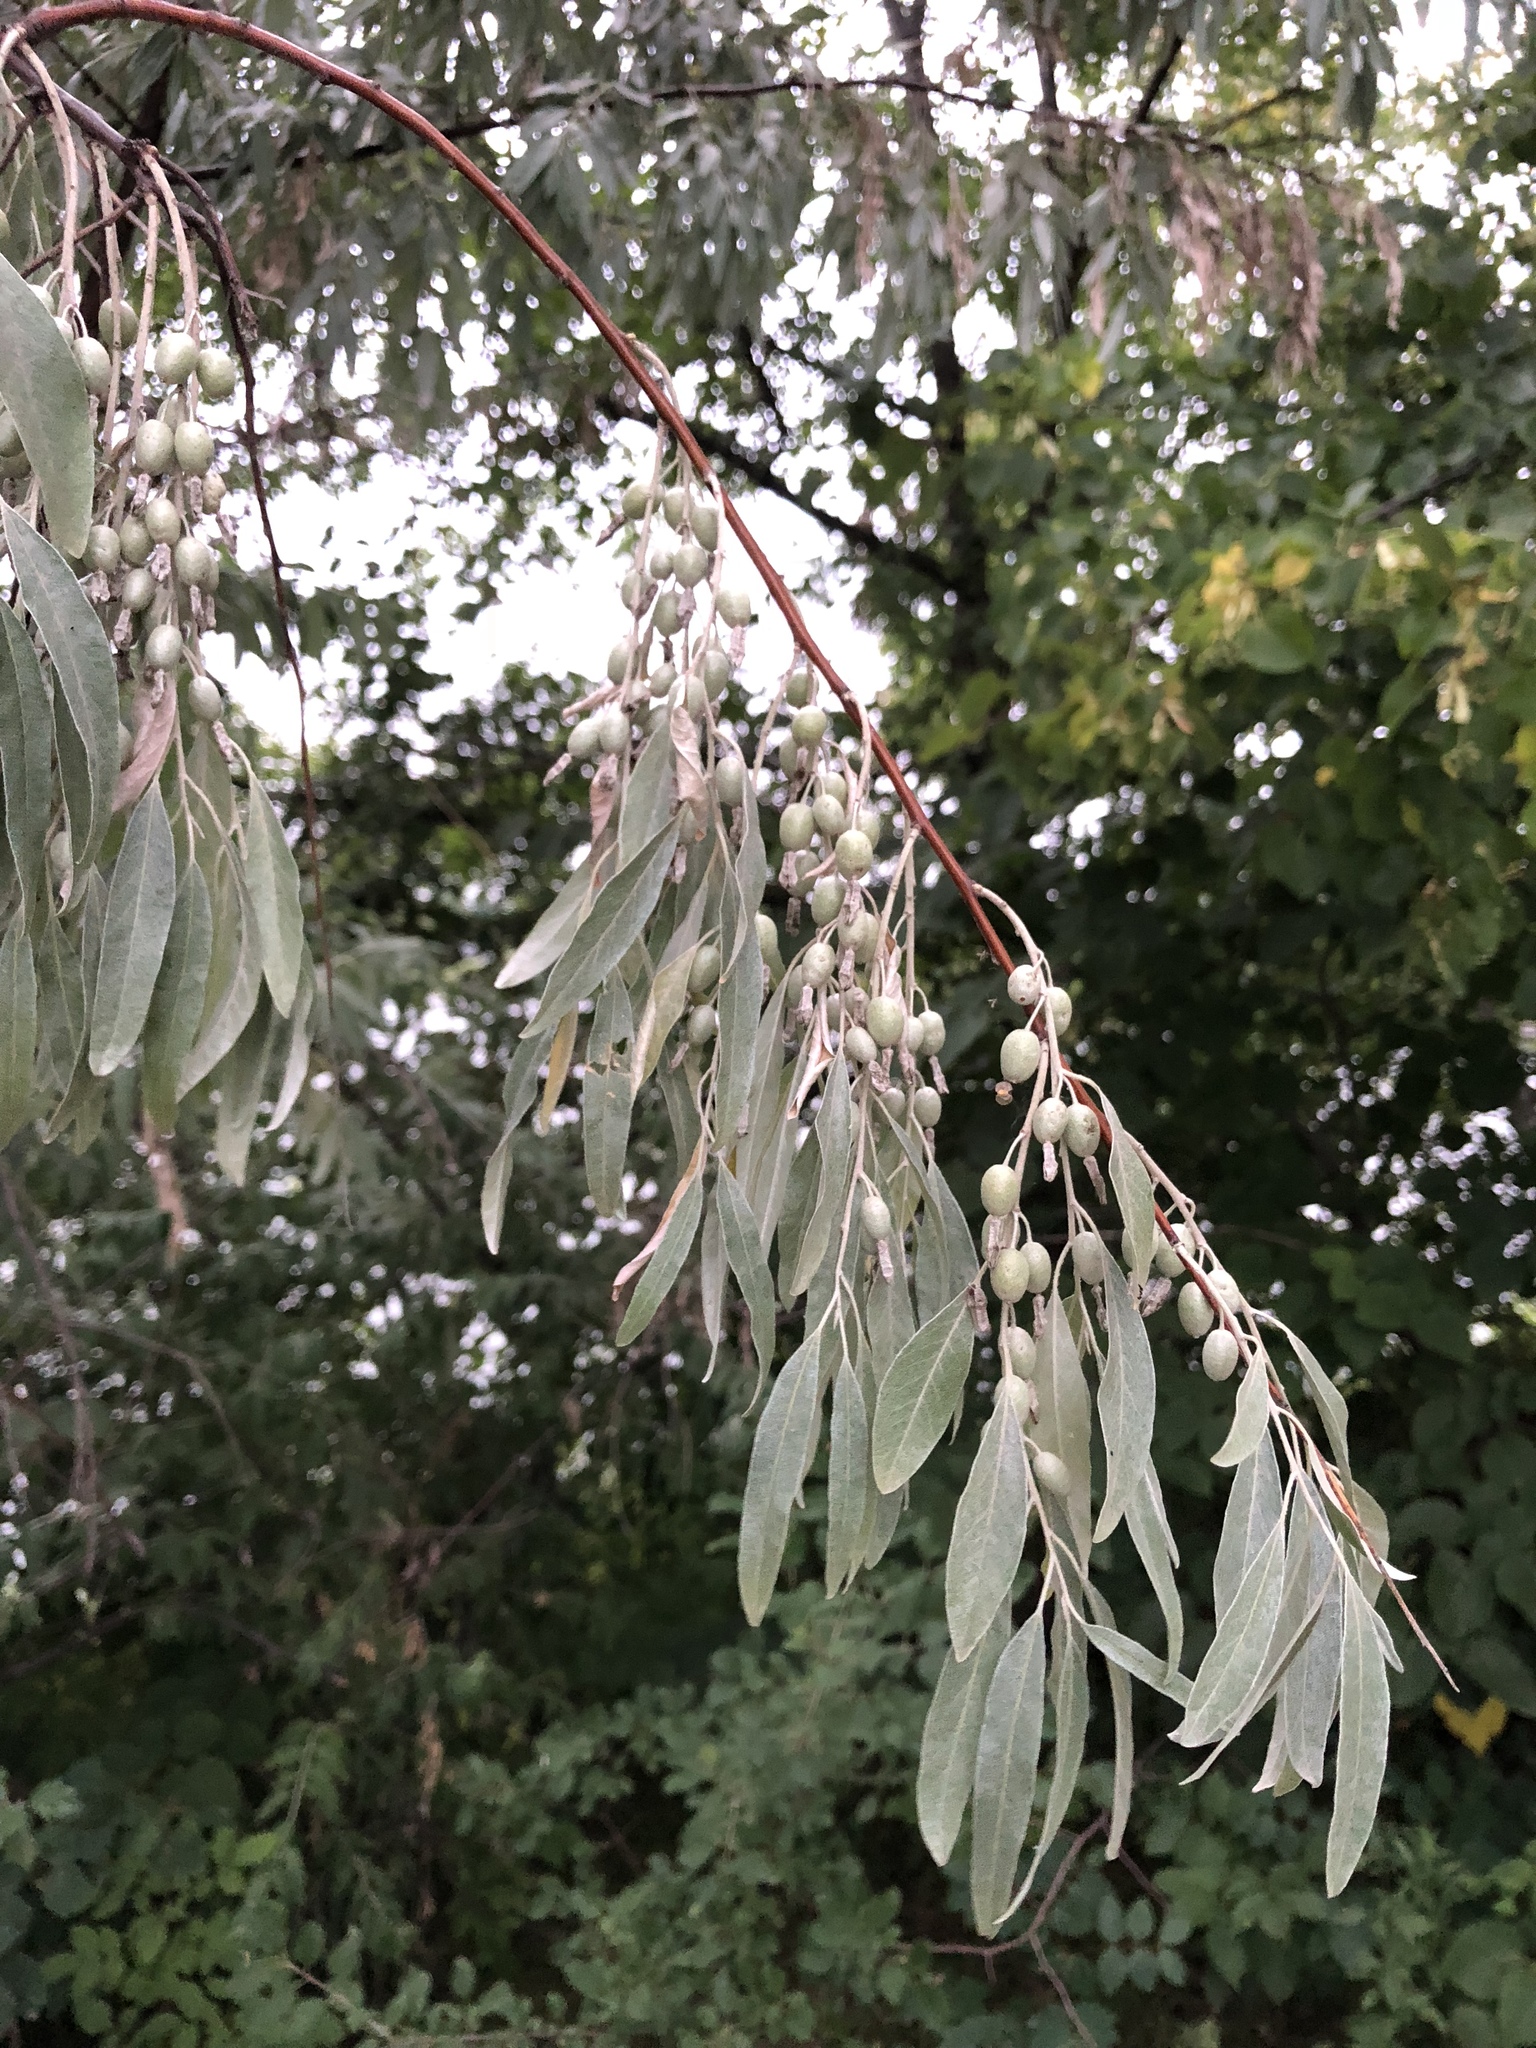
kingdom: Plantae
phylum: Tracheophyta
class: Magnoliopsida
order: Rosales
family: Elaeagnaceae
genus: Elaeagnus
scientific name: Elaeagnus angustifolia
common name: Russian olive
